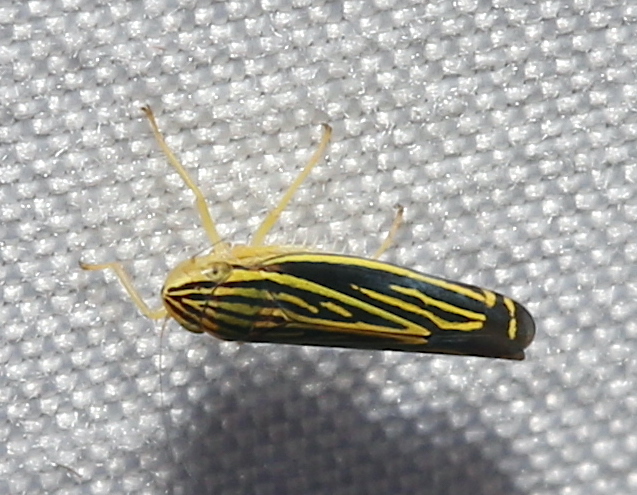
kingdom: Animalia
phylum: Arthropoda
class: Insecta
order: Hemiptera
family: Cicadellidae
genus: Sibovia
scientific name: Sibovia occatoria
